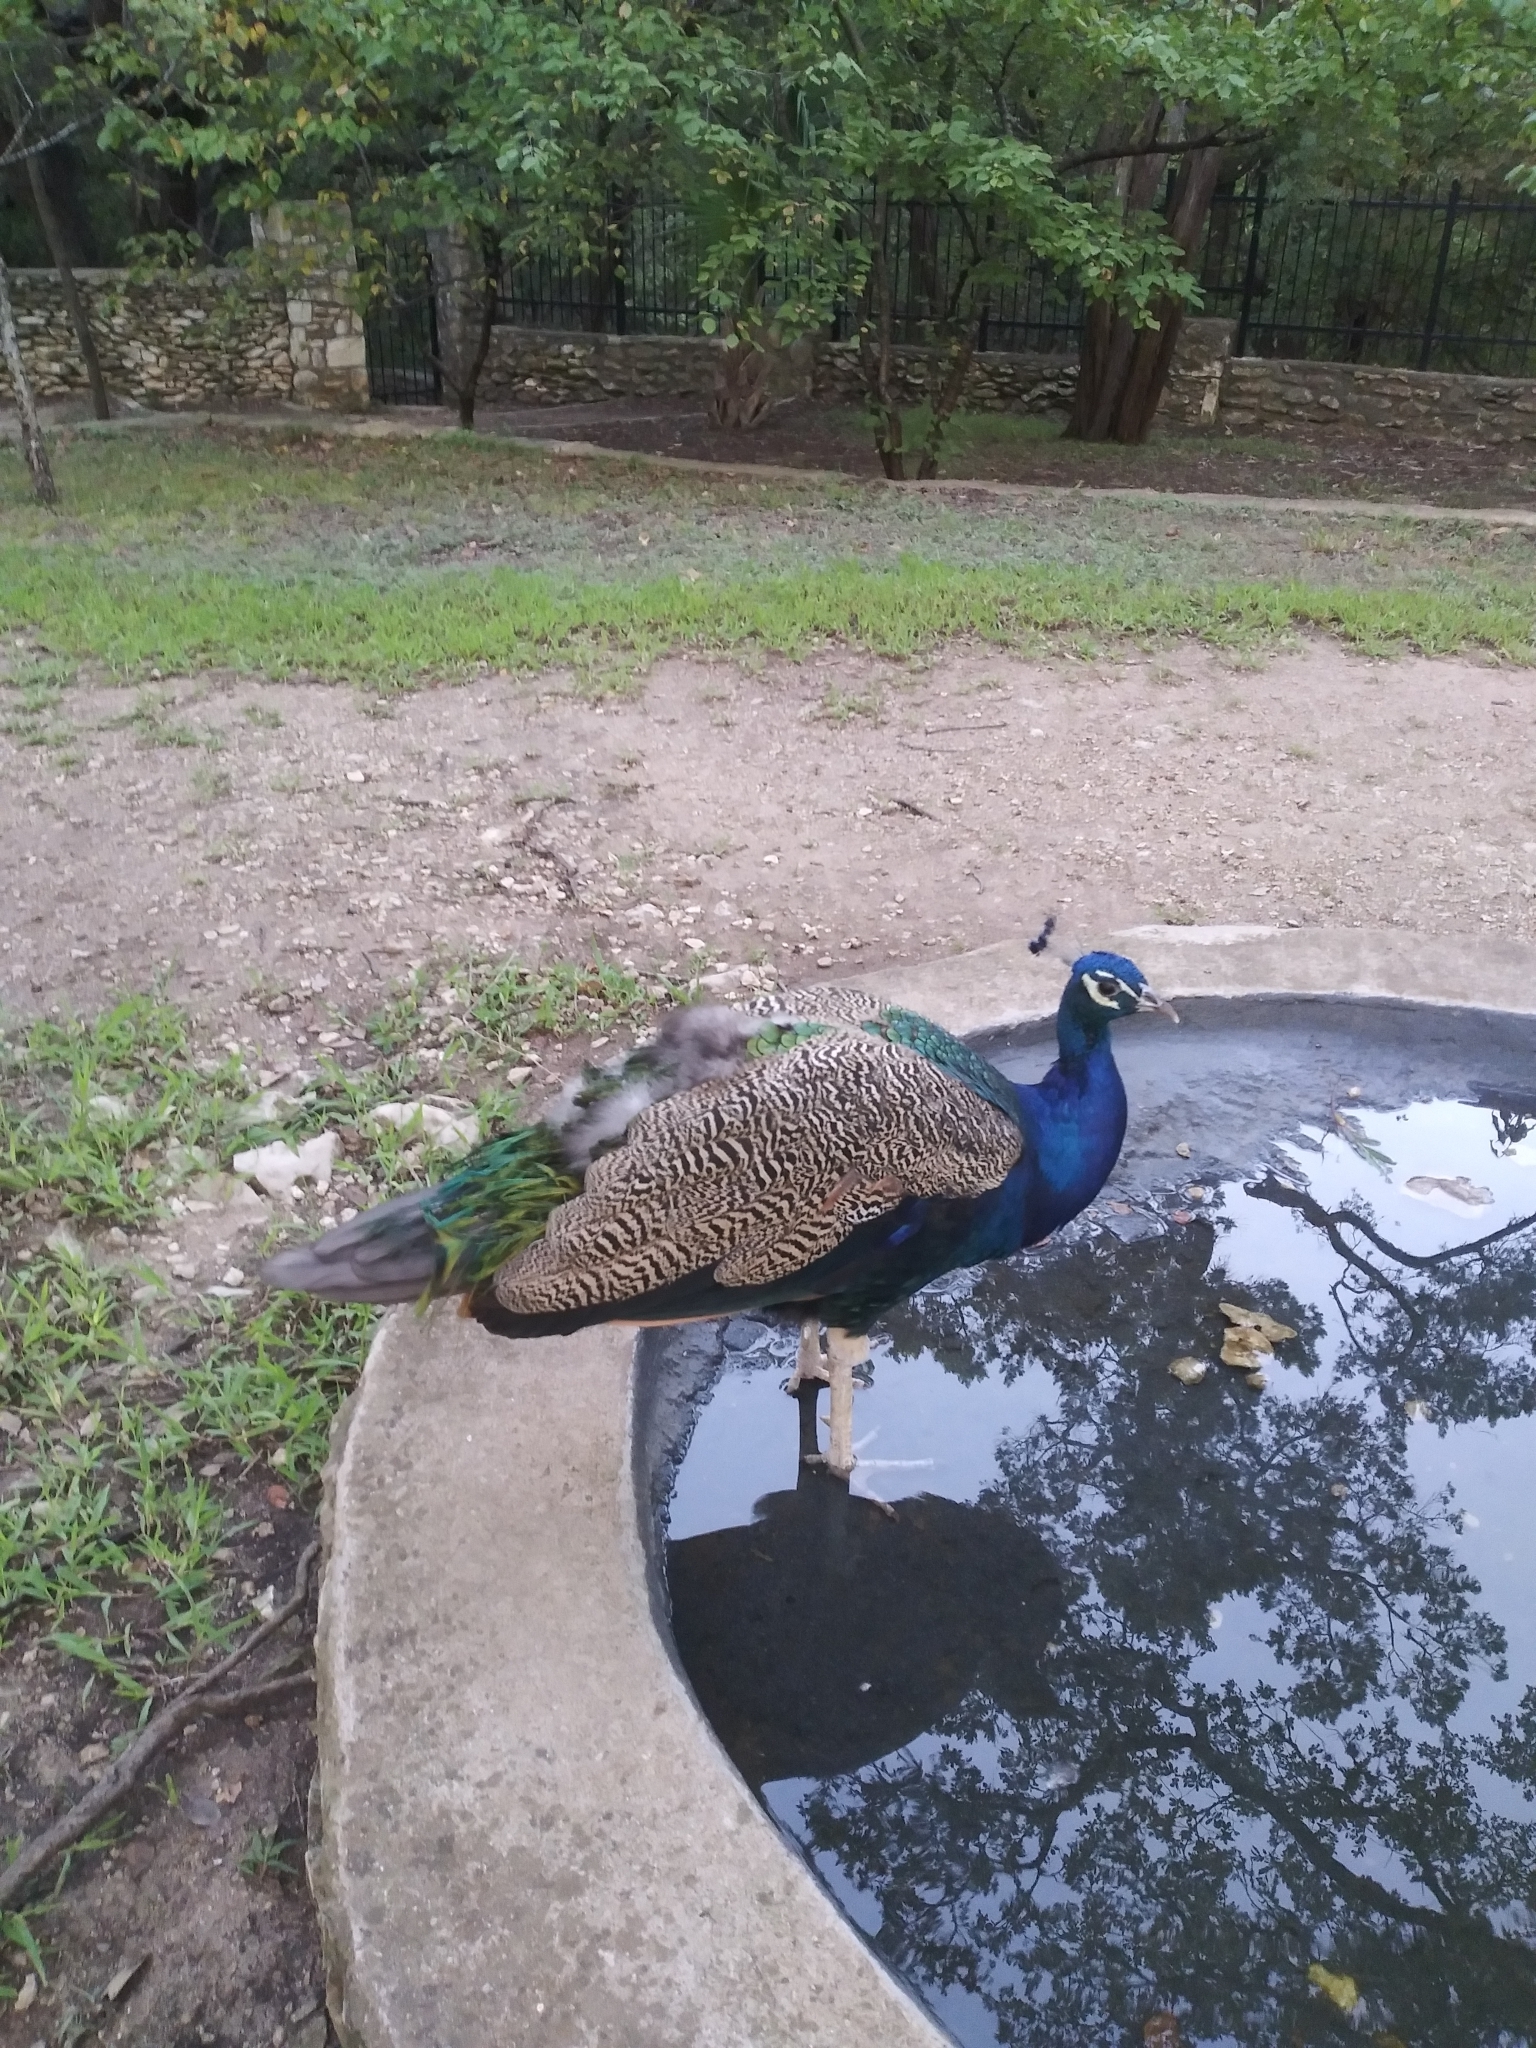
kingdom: Animalia
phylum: Chordata
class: Aves
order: Galliformes
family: Phasianidae
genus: Pavo
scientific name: Pavo cristatus
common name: Indian peafowl
